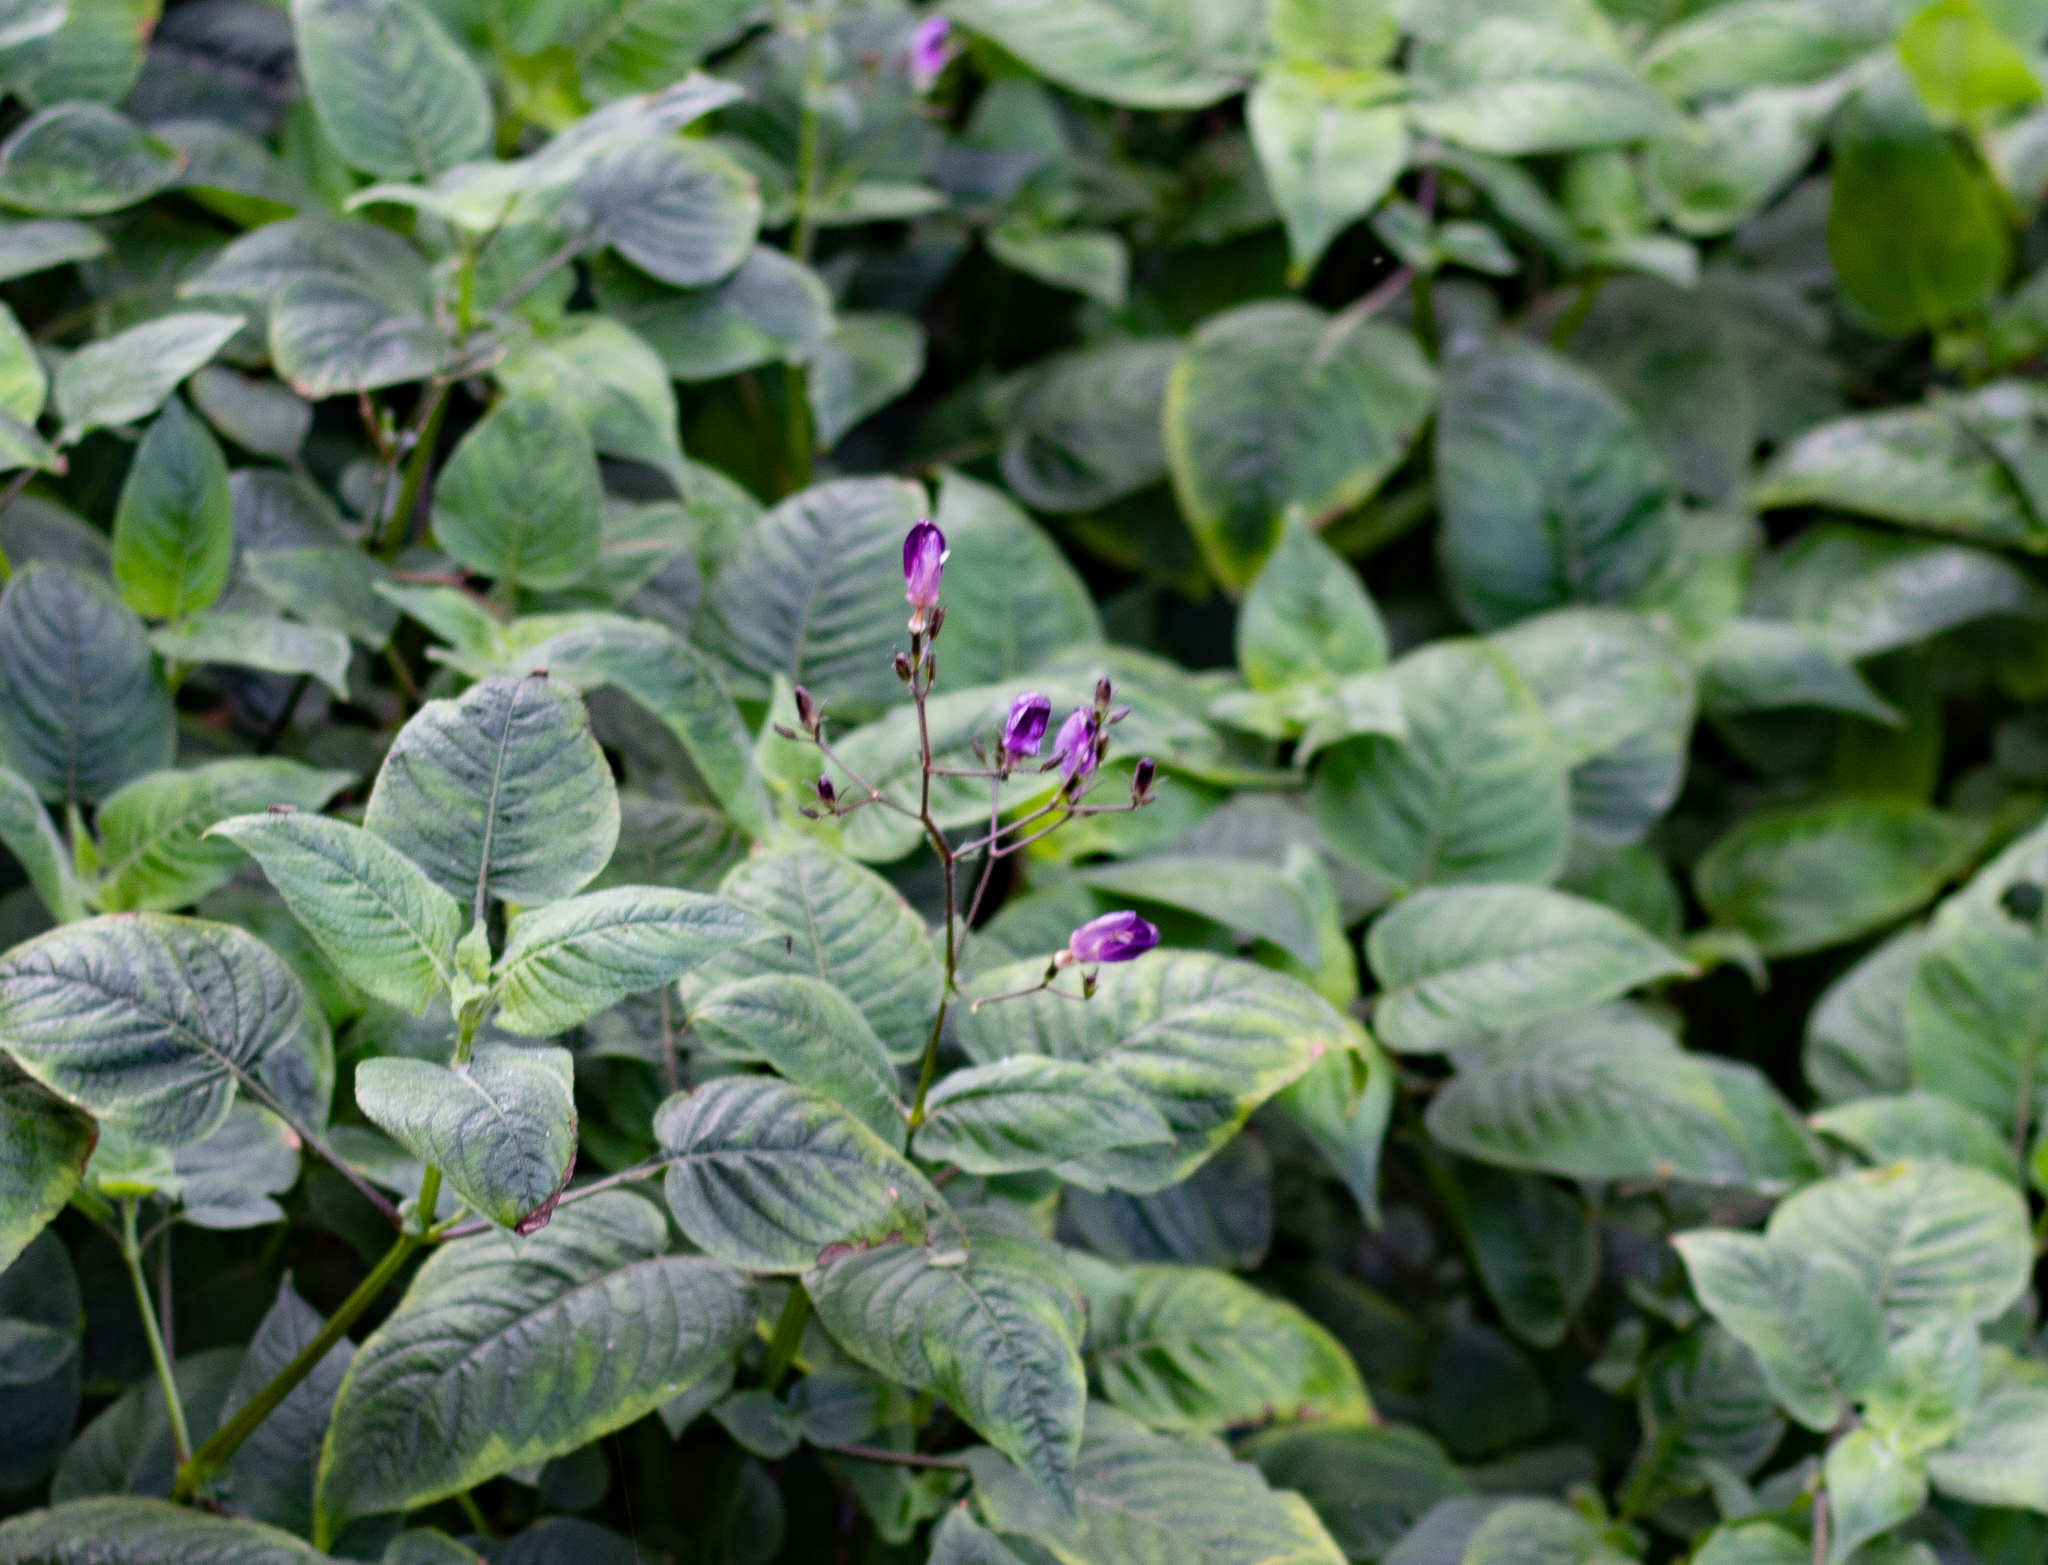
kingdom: Plantae
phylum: Tracheophyta
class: Magnoliopsida
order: Lamiales
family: Acanthaceae
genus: Brillantaisia
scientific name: Brillantaisia lamium
